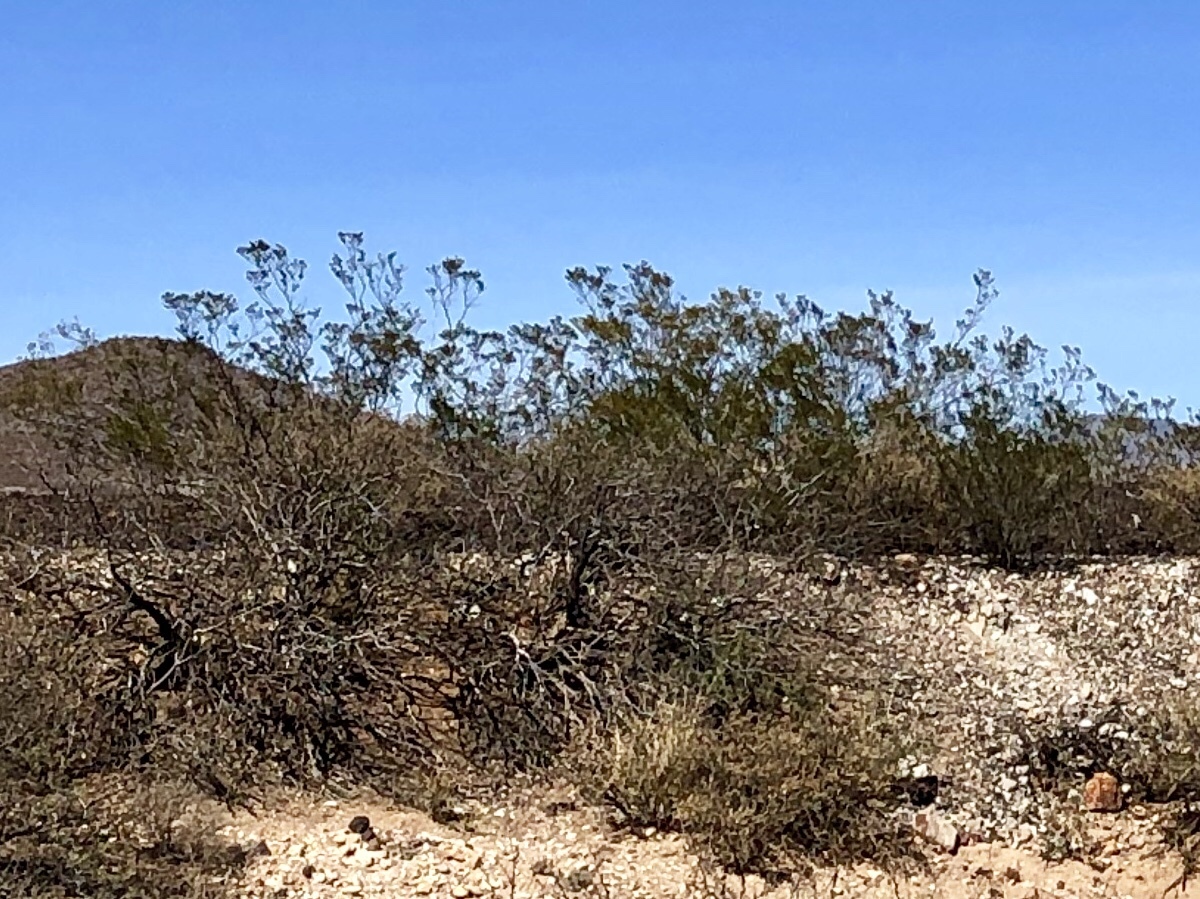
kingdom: Plantae
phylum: Tracheophyta
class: Magnoliopsida
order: Zygophyllales
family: Zygophyllaceae
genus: Larrea
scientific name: Larrea tridentata
